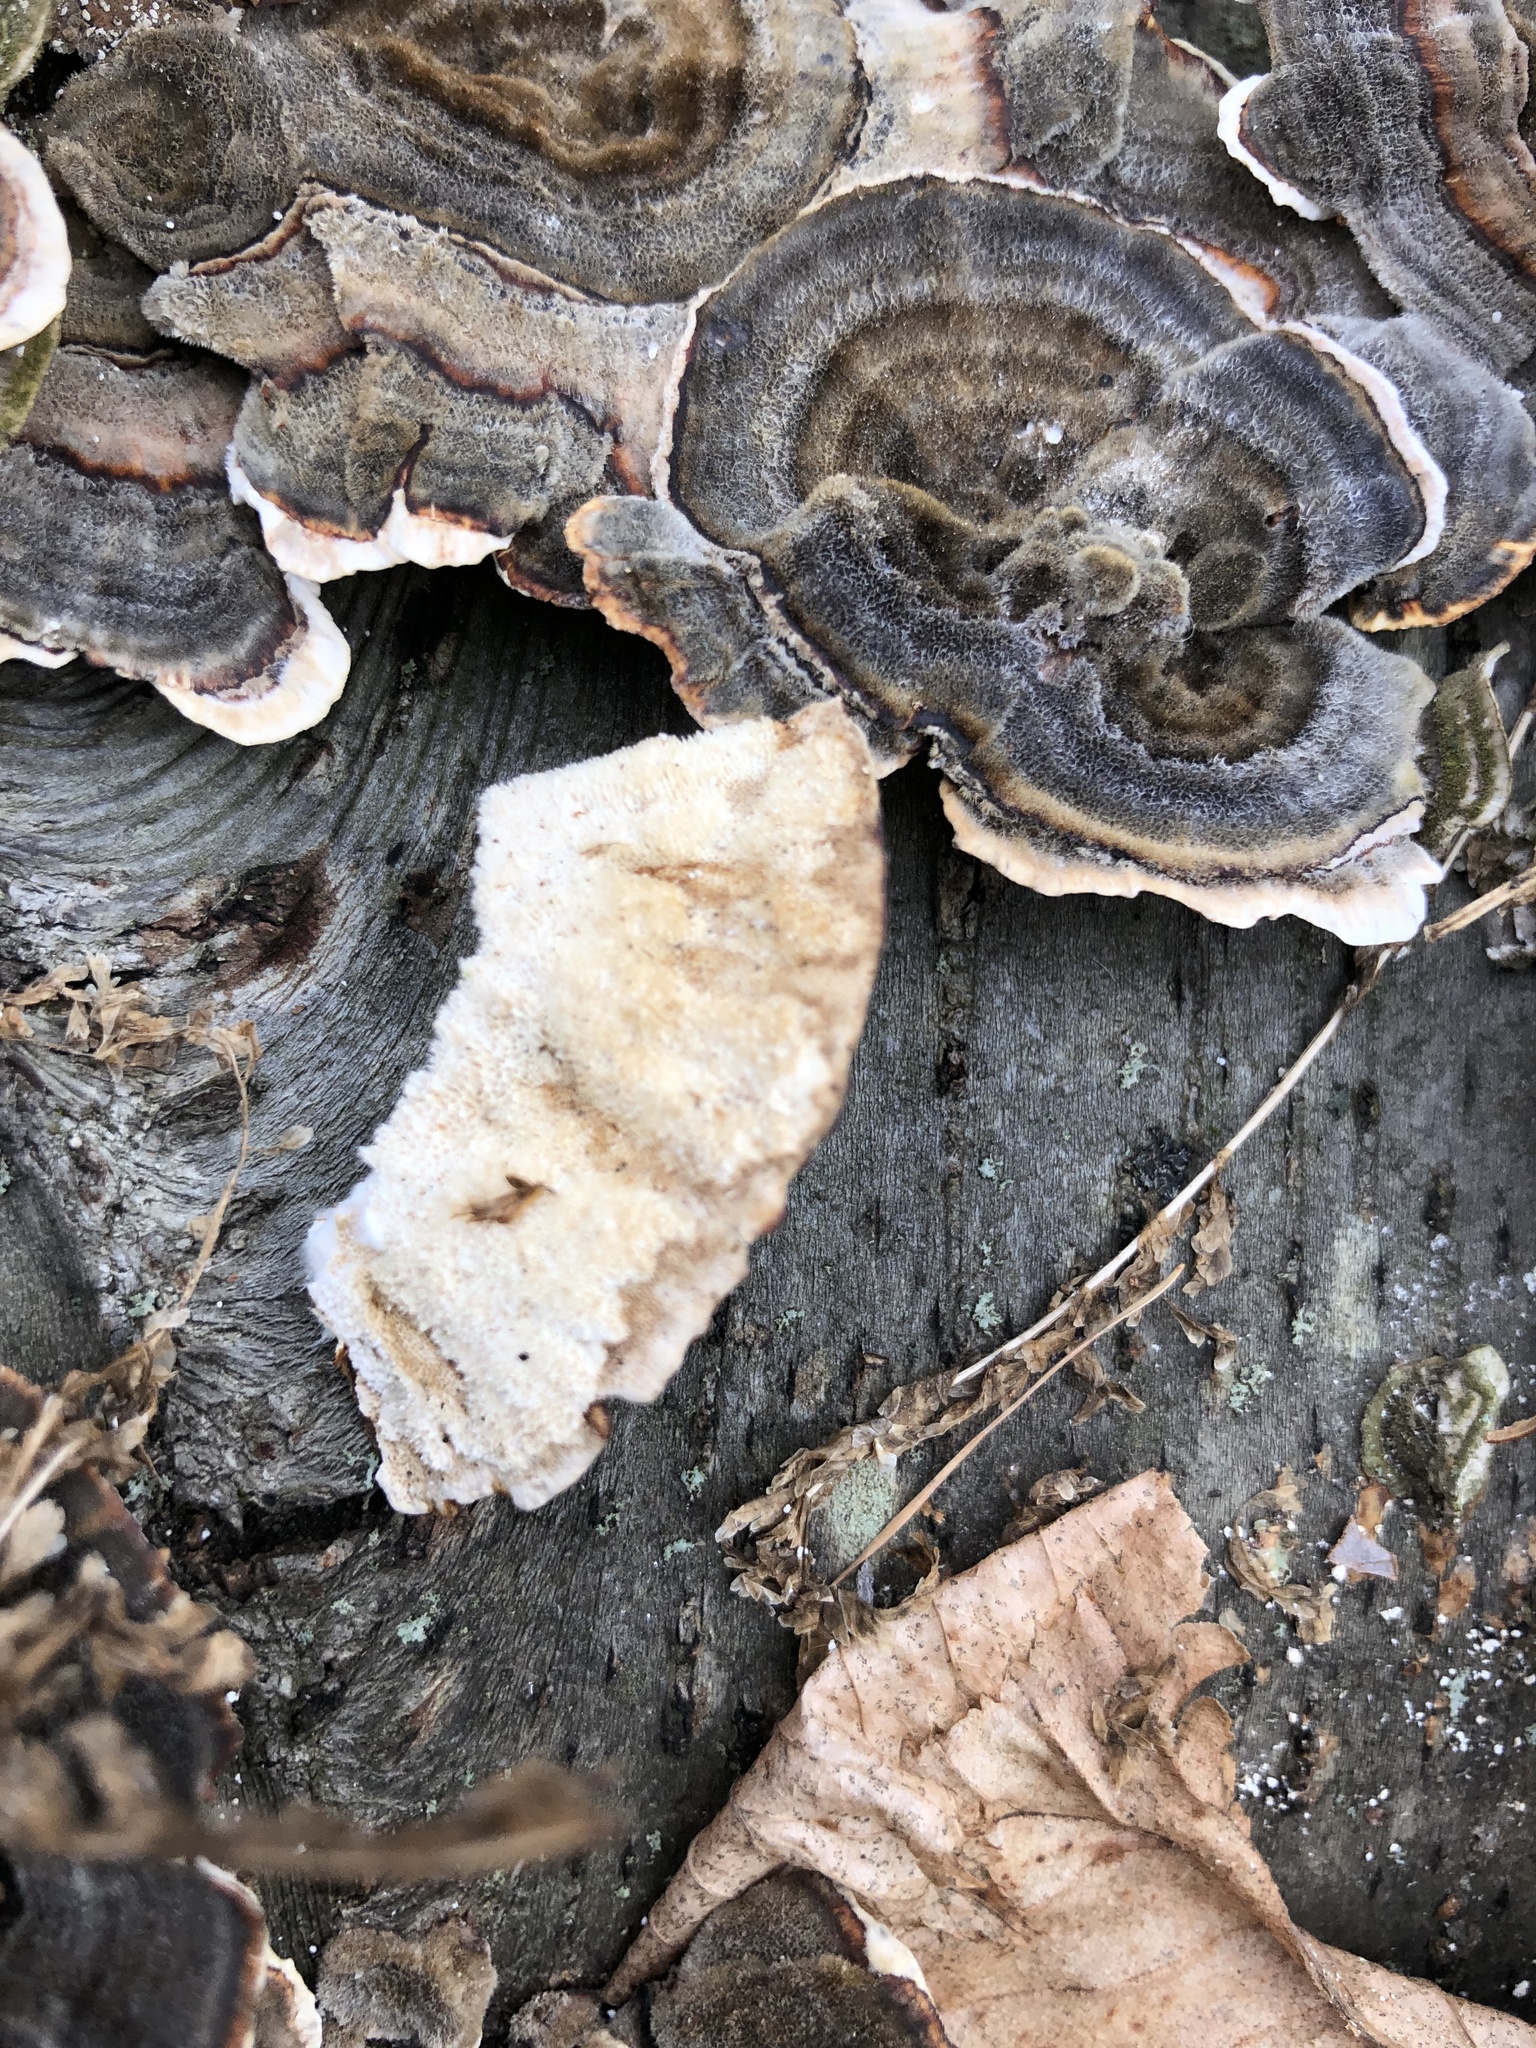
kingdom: Fungi
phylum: Basidiomycota
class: Agaricomycetes
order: Polyporales
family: Polyporaceae
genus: Trametes
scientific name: Trametes versicolor
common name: Turkeytail
